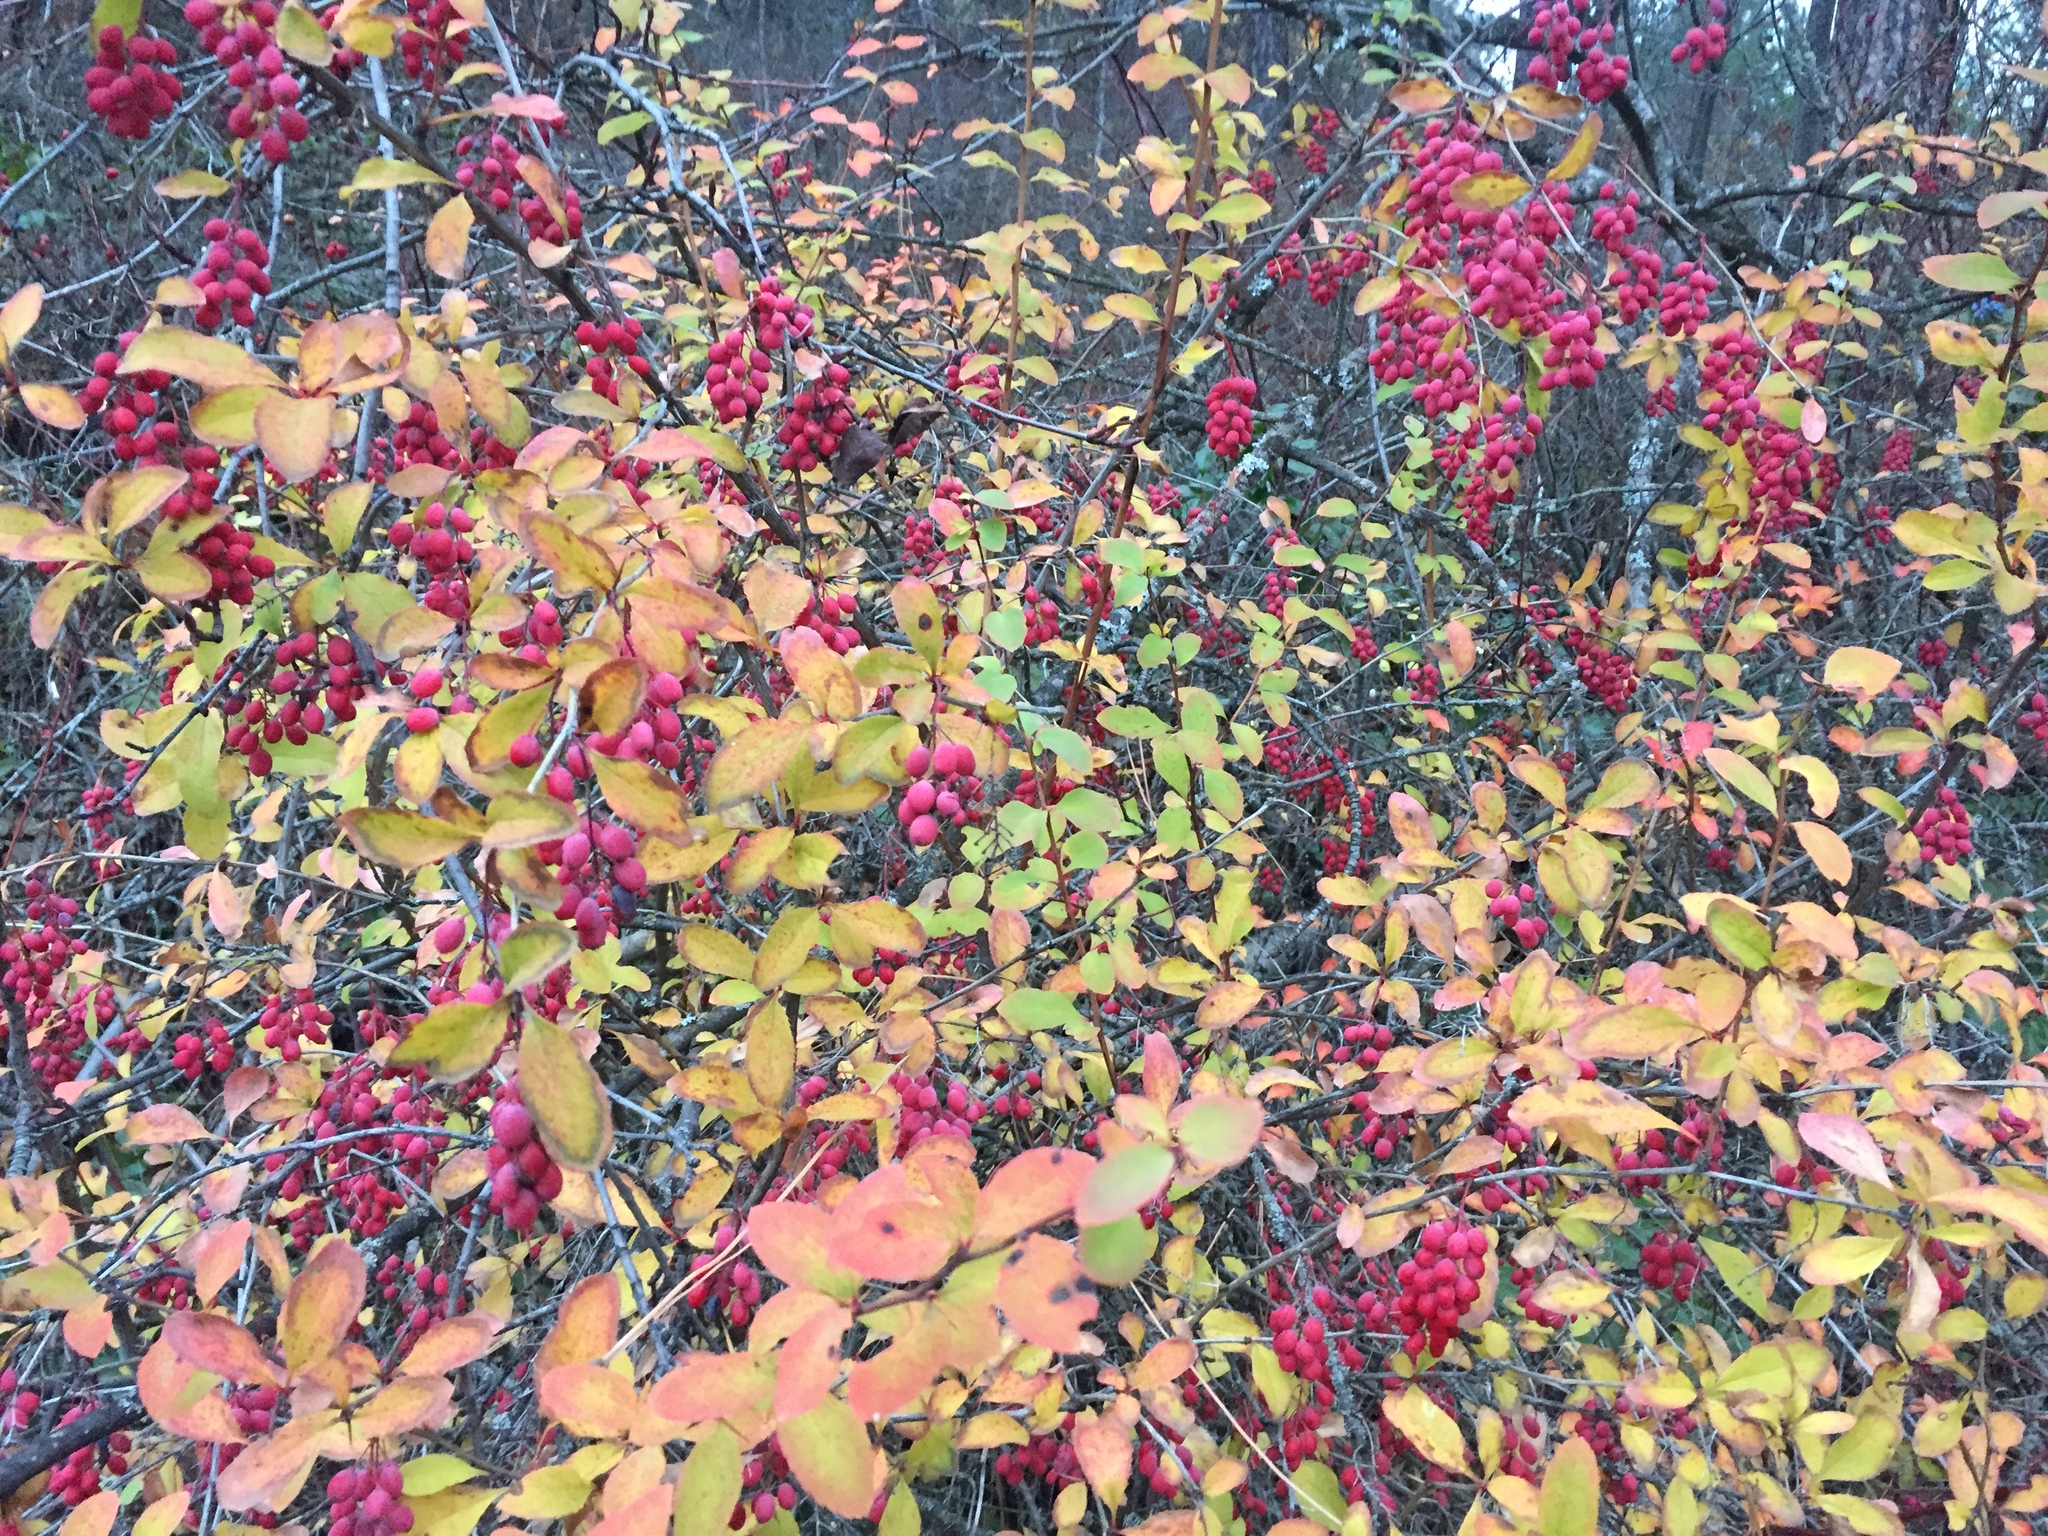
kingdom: Plantae
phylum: Tracheophyta
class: Magnoliopsida
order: Ranunculales
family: Berberidaceae
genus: Berberis
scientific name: Berberis vulgaris
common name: Barberry
